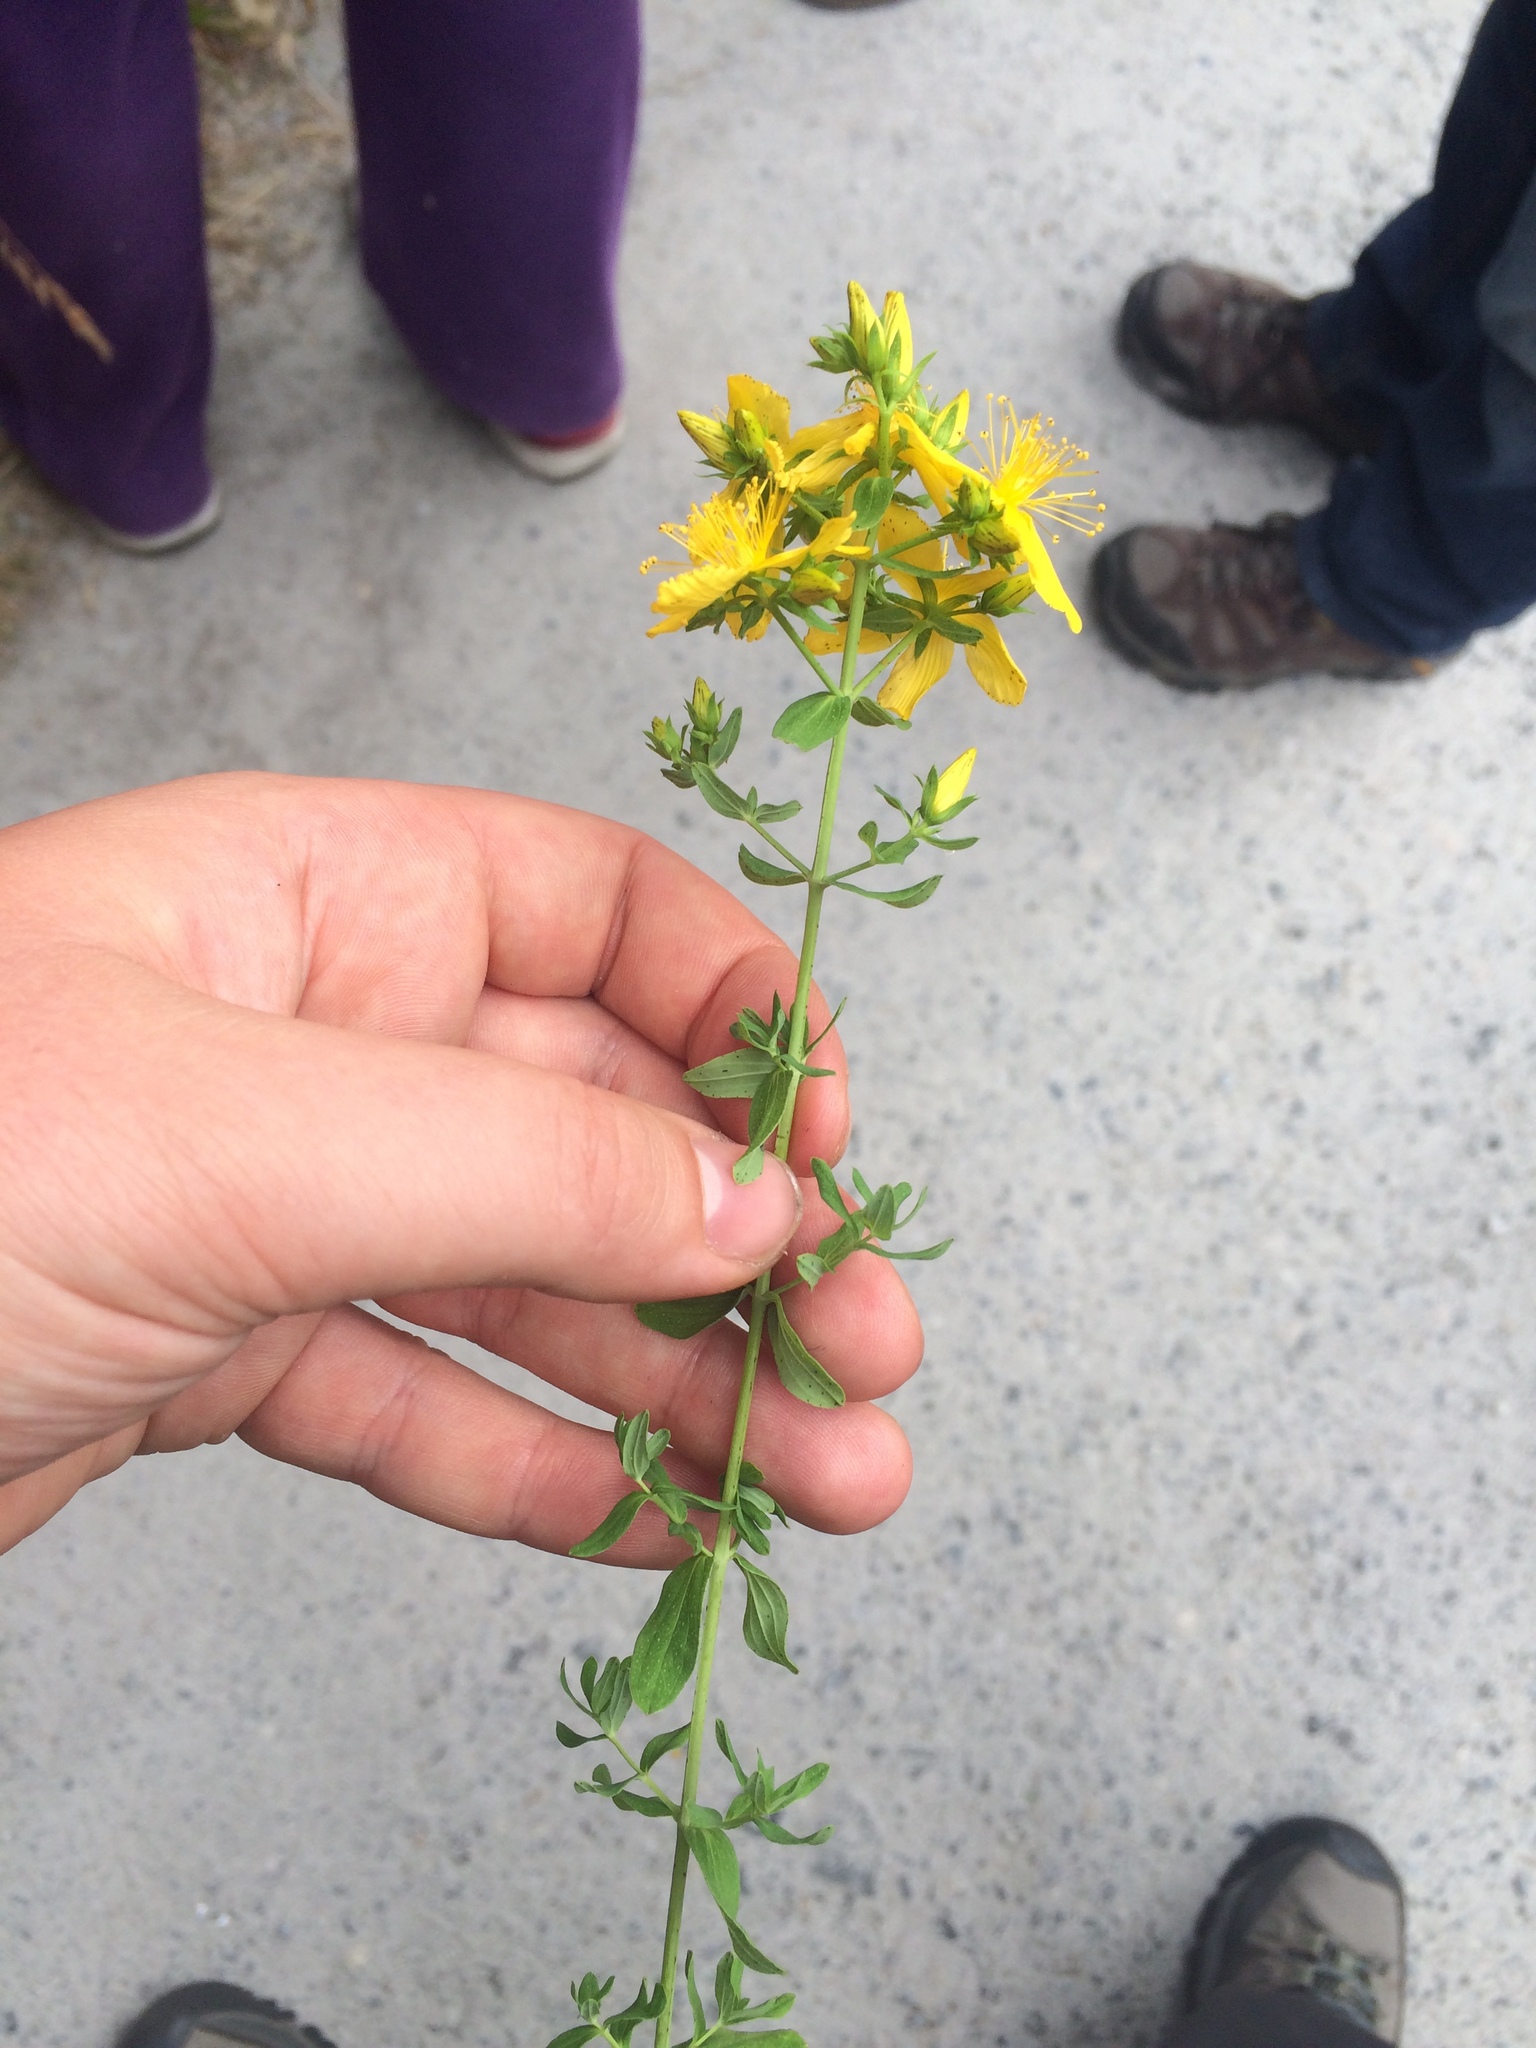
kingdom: Plantae
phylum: Tracheophyta
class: Magnoliopsida
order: Malpighiales
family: Hypericaceae
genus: Hypericum
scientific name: Hypericum perforatum
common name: Common st. johnswort
